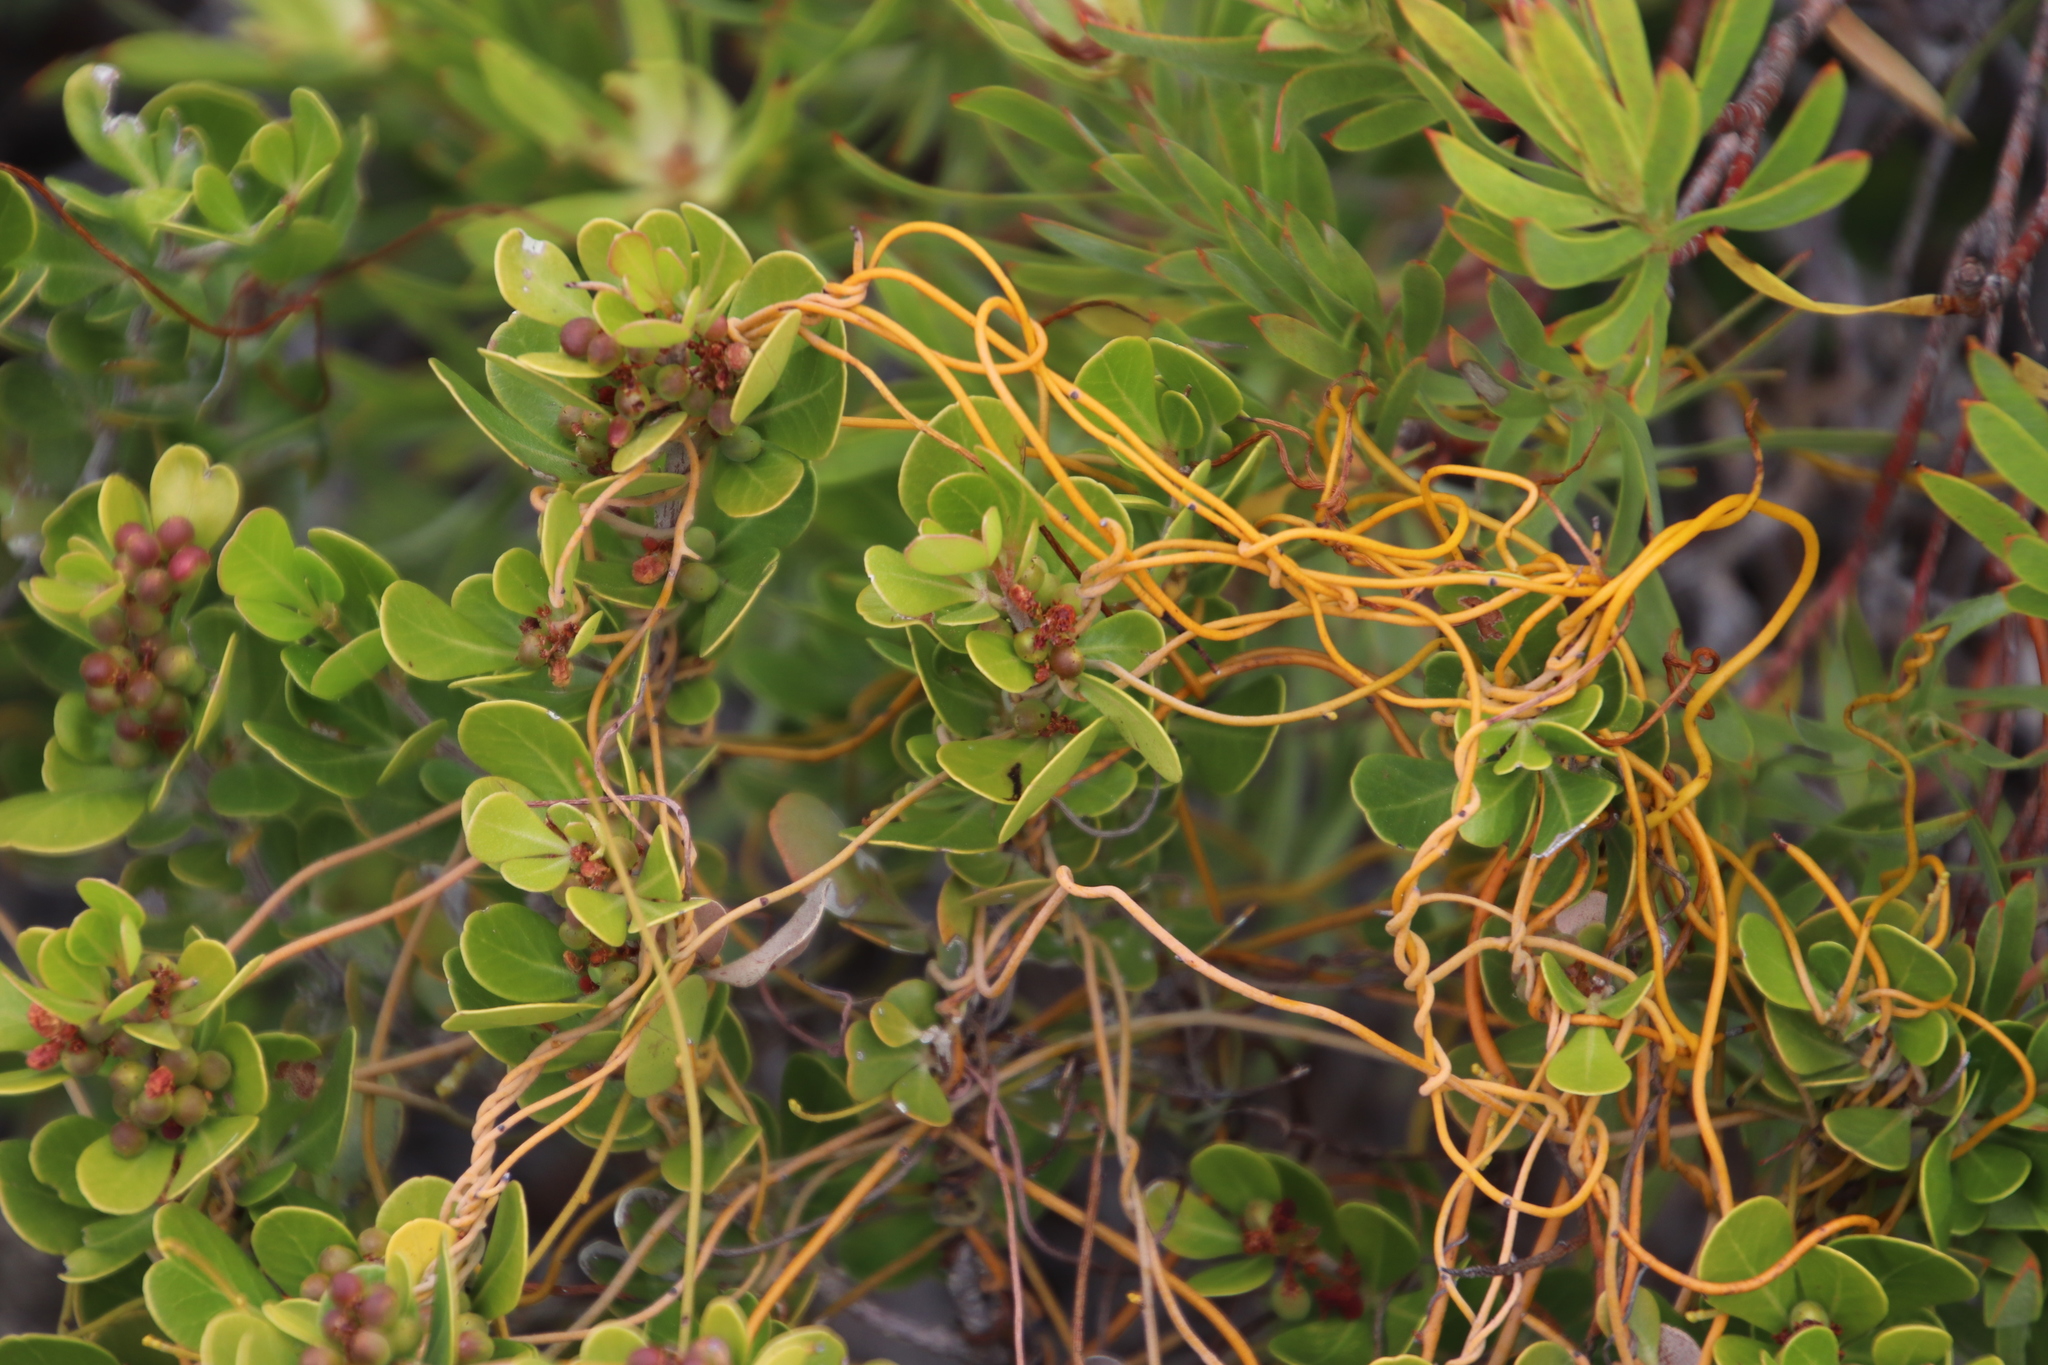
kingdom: Plantae
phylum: Tracheophyta
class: Magnoliopsida
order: Sapindales
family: Anacardiaceae
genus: Searsia
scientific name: Searsia lucida
